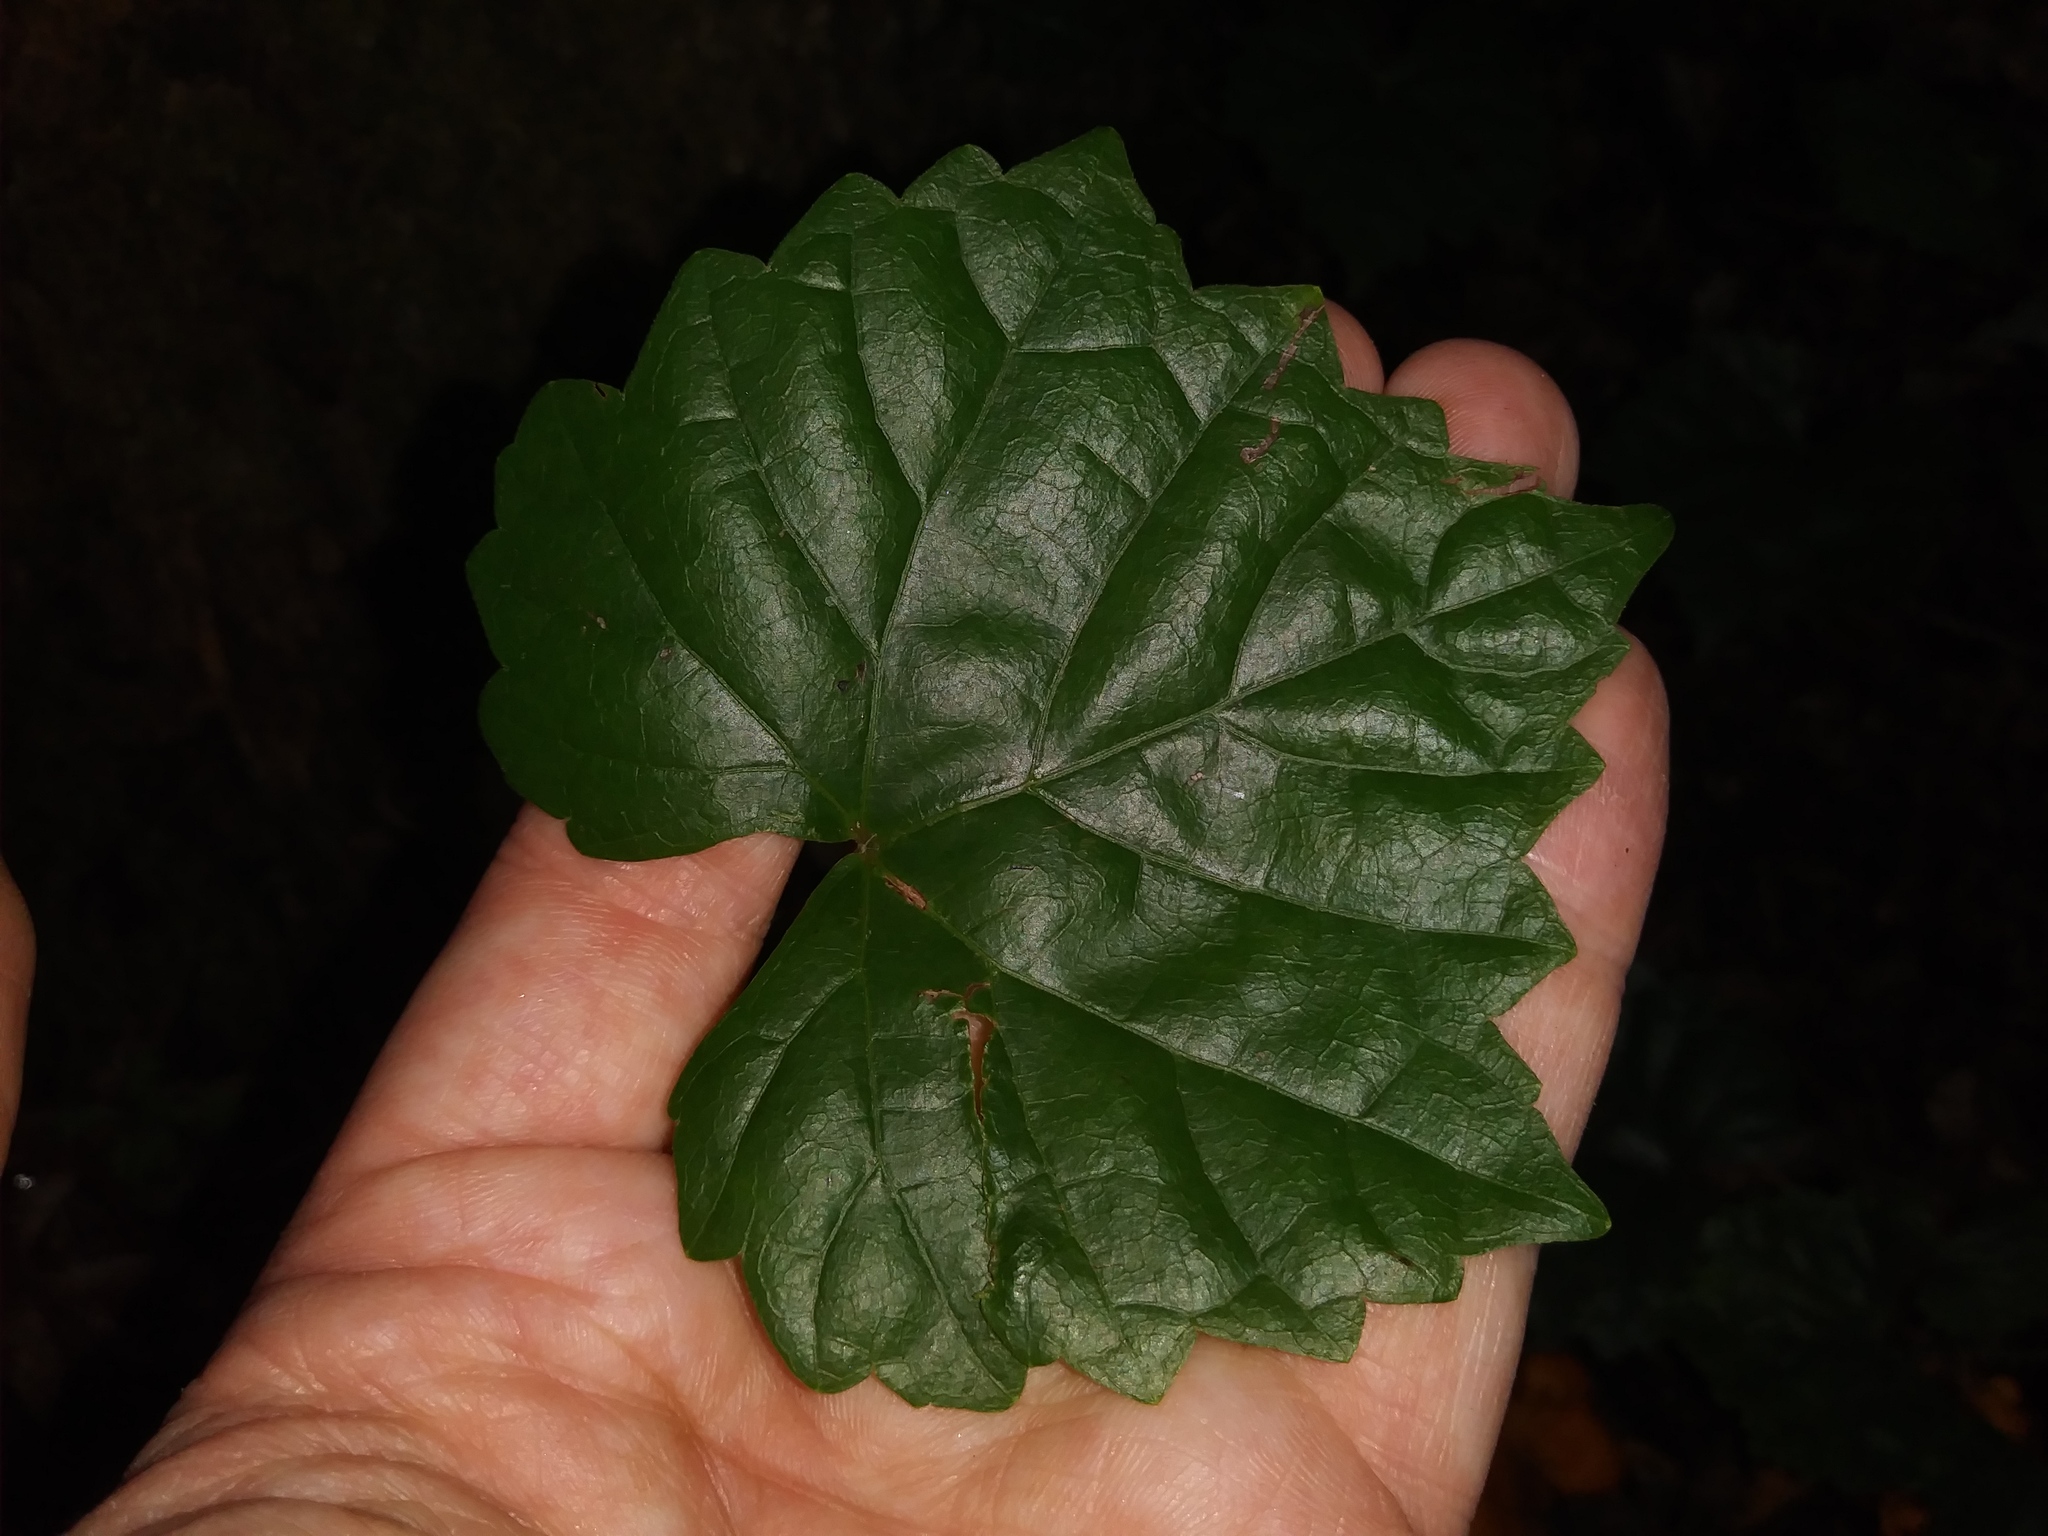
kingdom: Plantae
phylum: Tracheophyta
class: Magnoliopsida
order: Vitales
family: Vitaceae
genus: Vitis
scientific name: Vitis rotundifolia
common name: Muscadine grape
